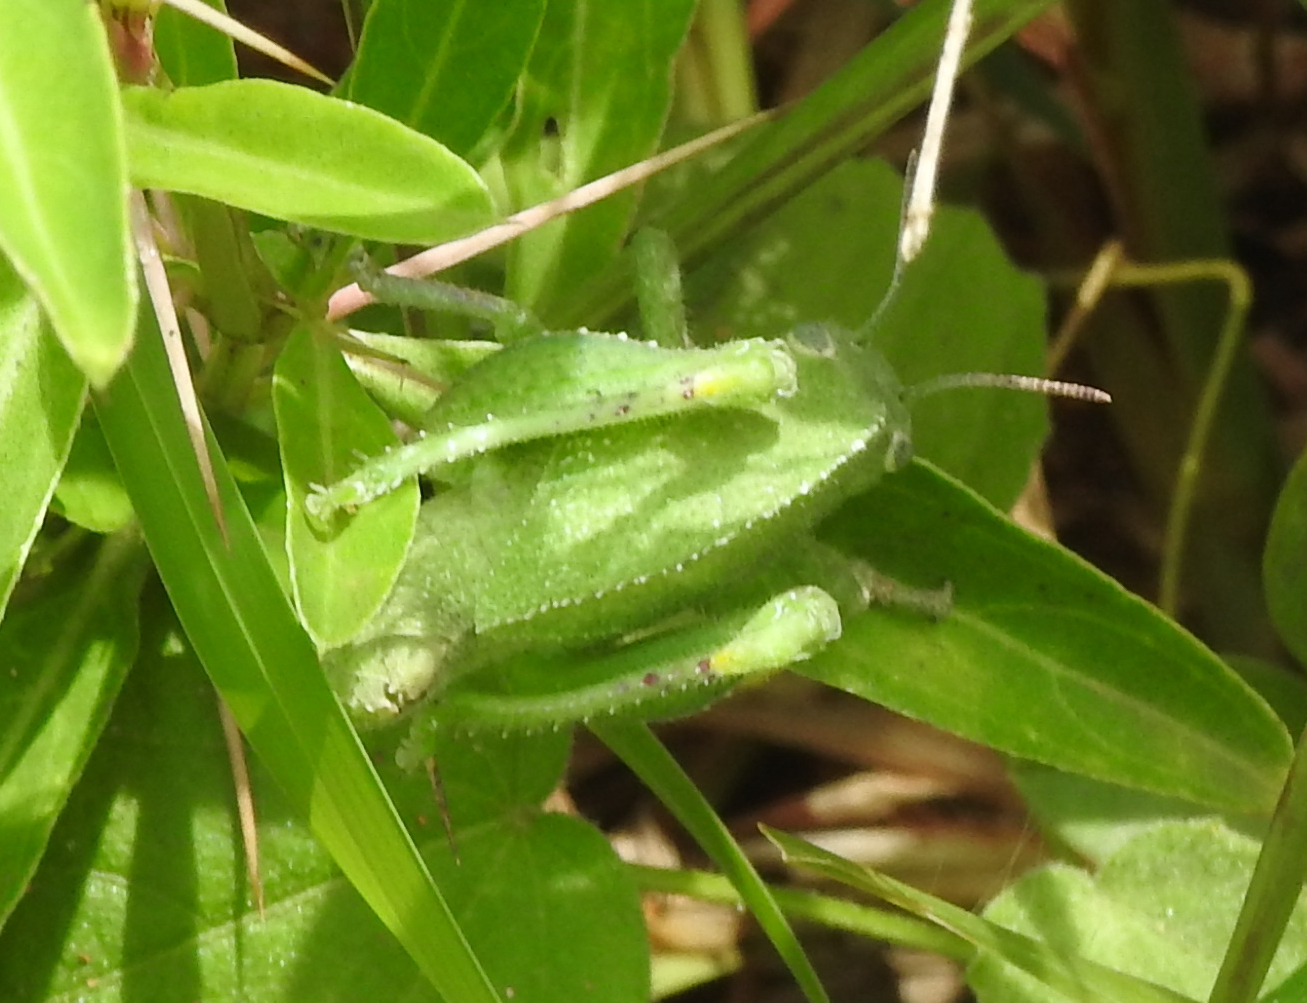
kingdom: Animalia
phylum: Arthropoda
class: Insecta
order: Orthoptera
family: Acrididae
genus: Teratodes
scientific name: Teratodes brachypterus
